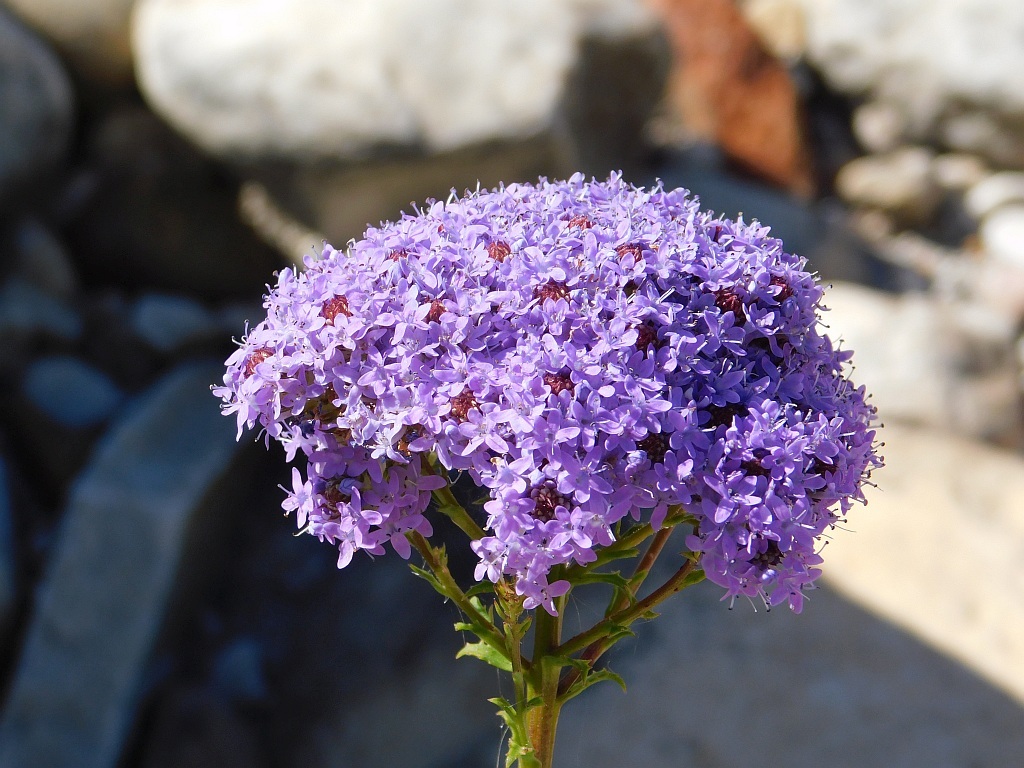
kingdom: Plantae
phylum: Tracheophyta
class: Magnoliopsida
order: Lamiales
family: Scrophulariaceae
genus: Pseudoselago
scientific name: Pseudoselago serrata
